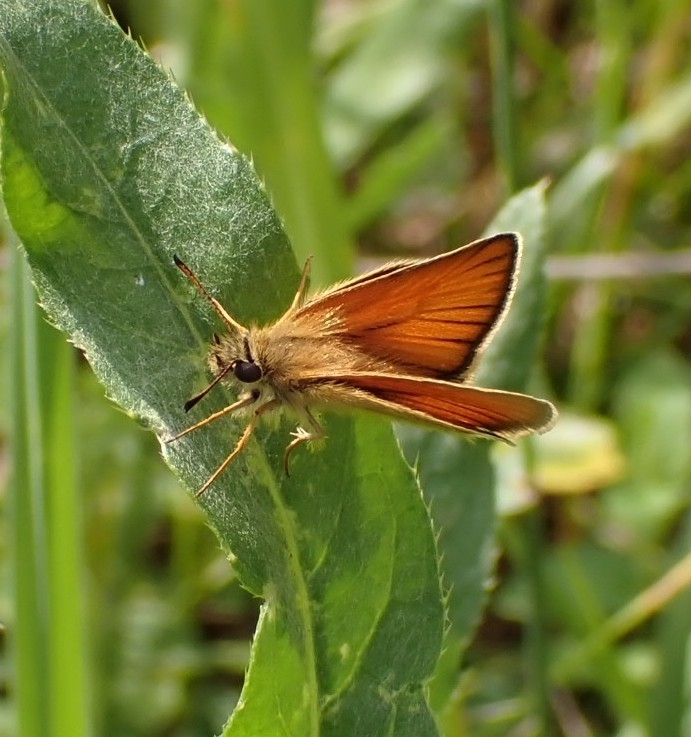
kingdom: Animalia
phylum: Arthropoda
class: Insecta
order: Lepidoptera
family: Hesperiidae
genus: Thymelicus
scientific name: Thymelicus lineola
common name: Essex skipper
